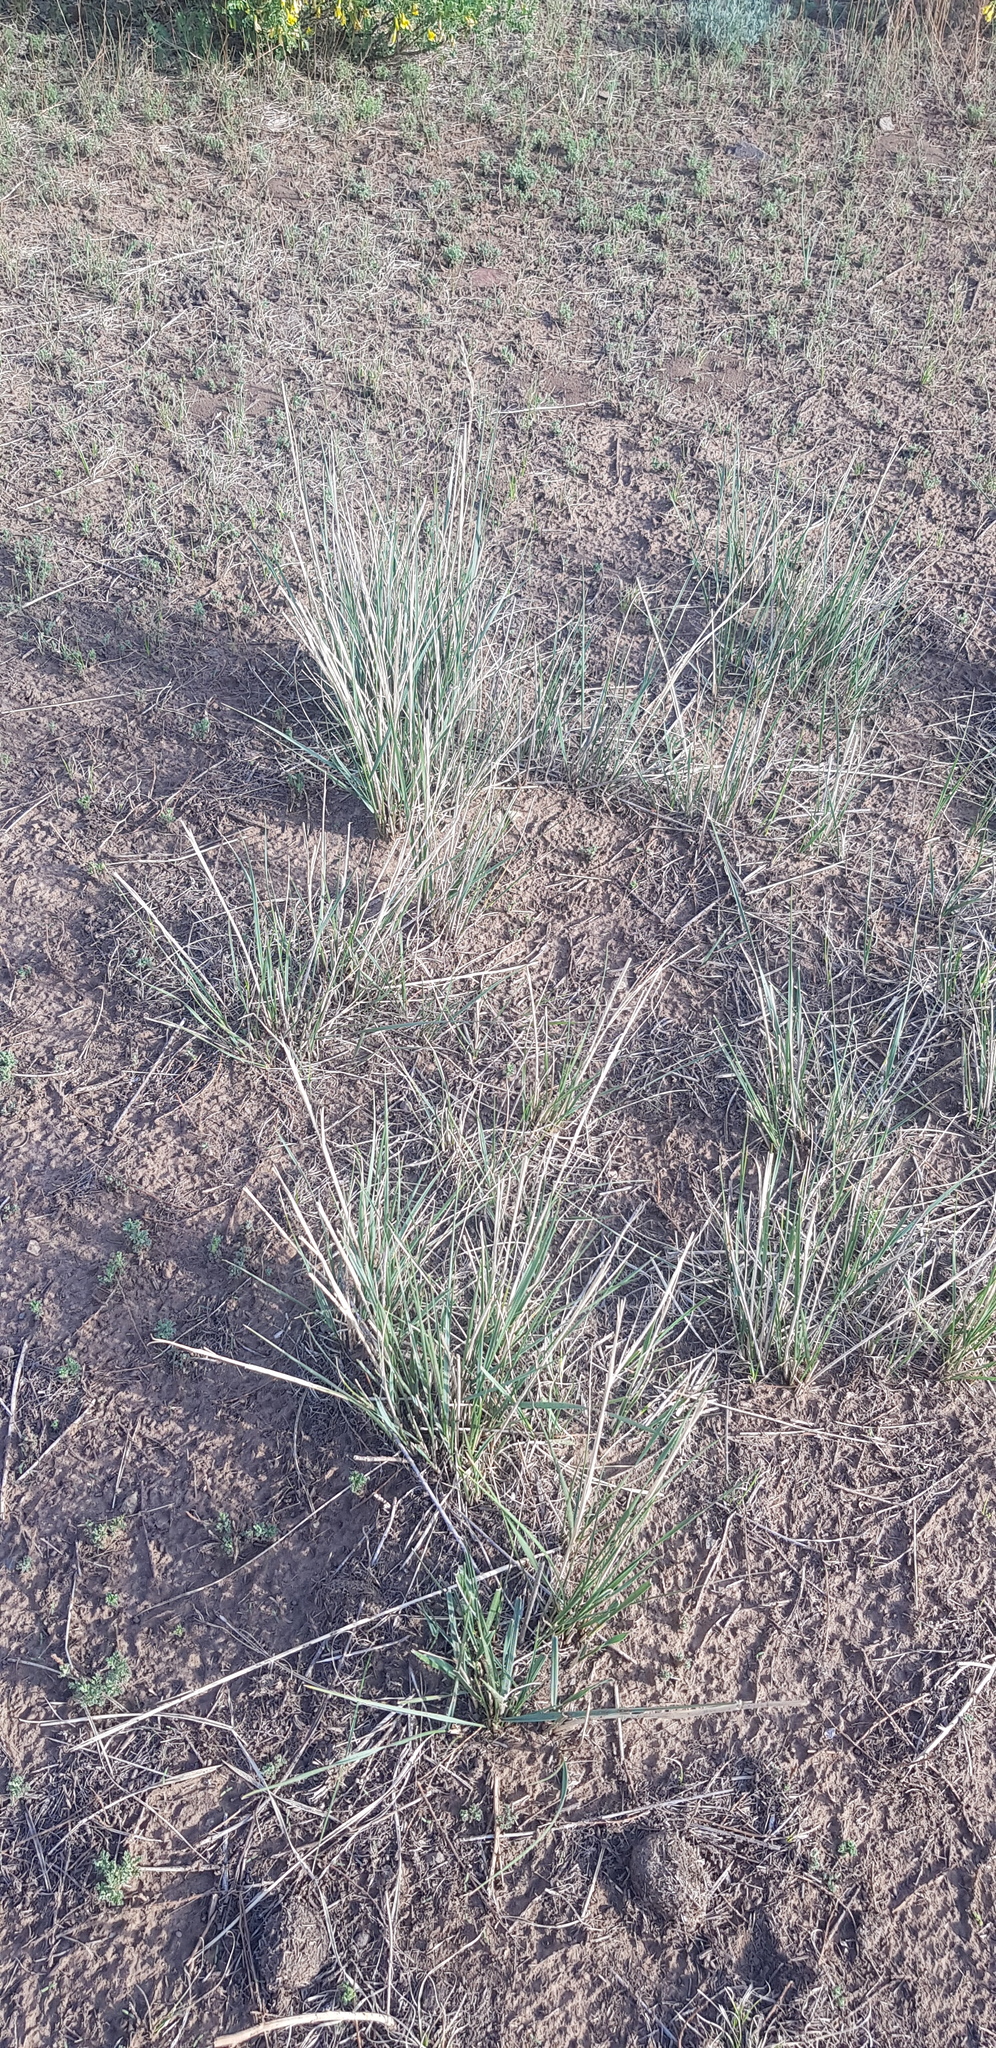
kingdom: Plantae
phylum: Tracheophyta
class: Liliopsida
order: Poales
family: Poaceae
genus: Neotrinia
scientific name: Neotrinia splendens
